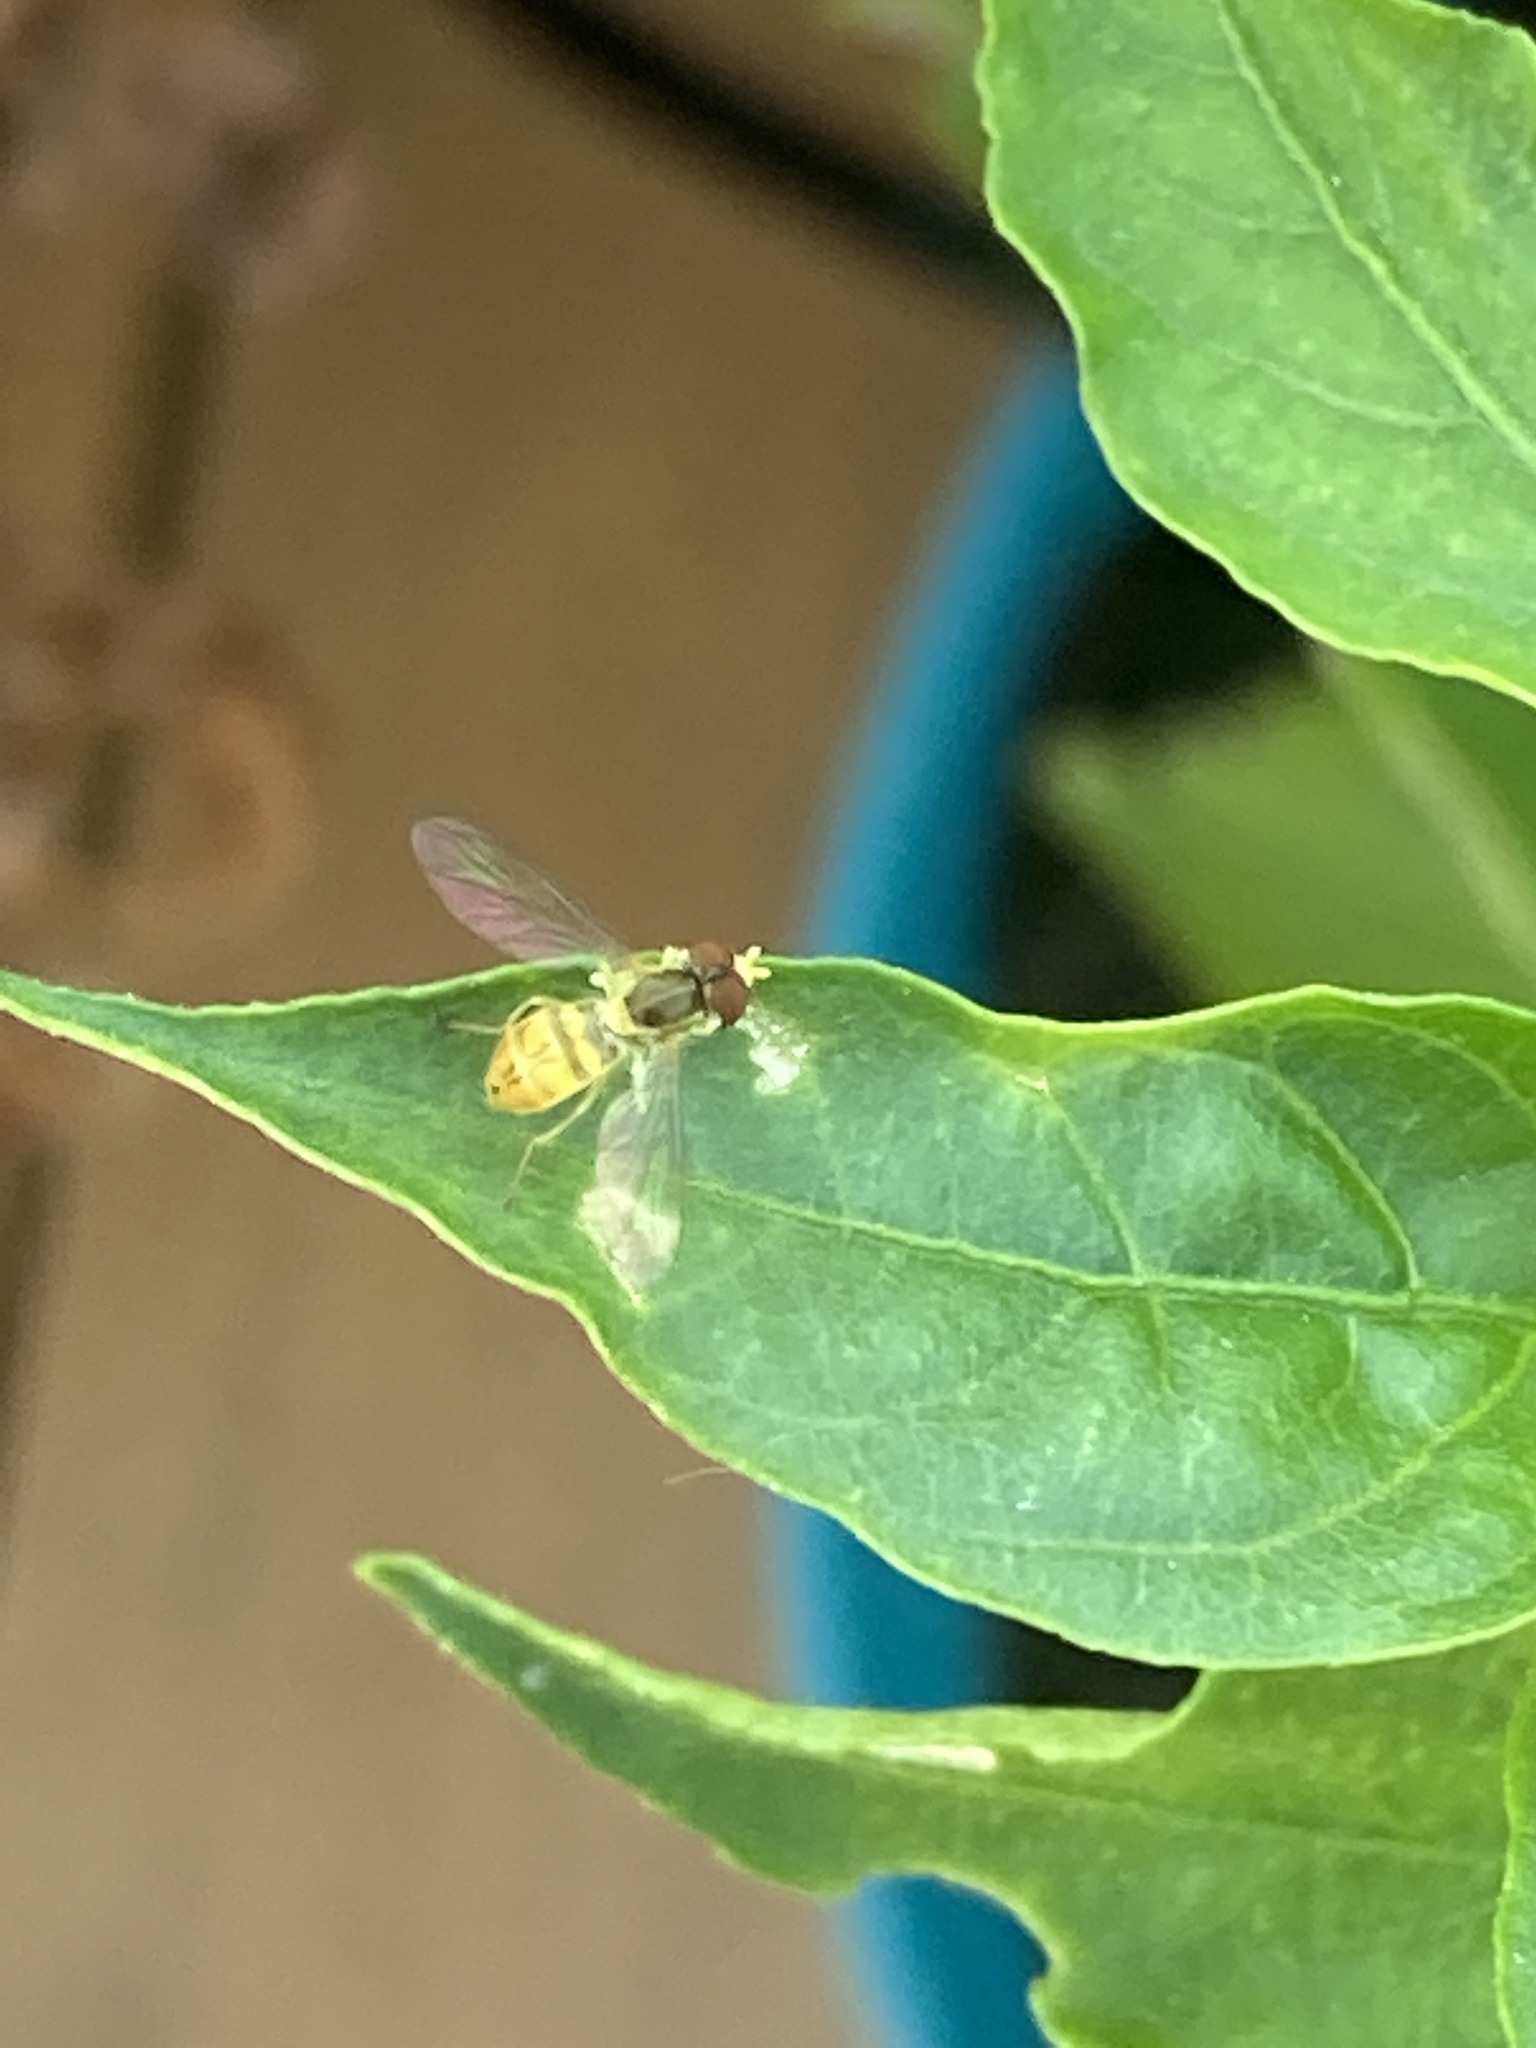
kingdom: Animalia
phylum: Arthropoda
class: Insecta
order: Diptera
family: Syrphidae
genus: Toxomerus
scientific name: Toxomerus marginatus
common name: Syrphid fly
